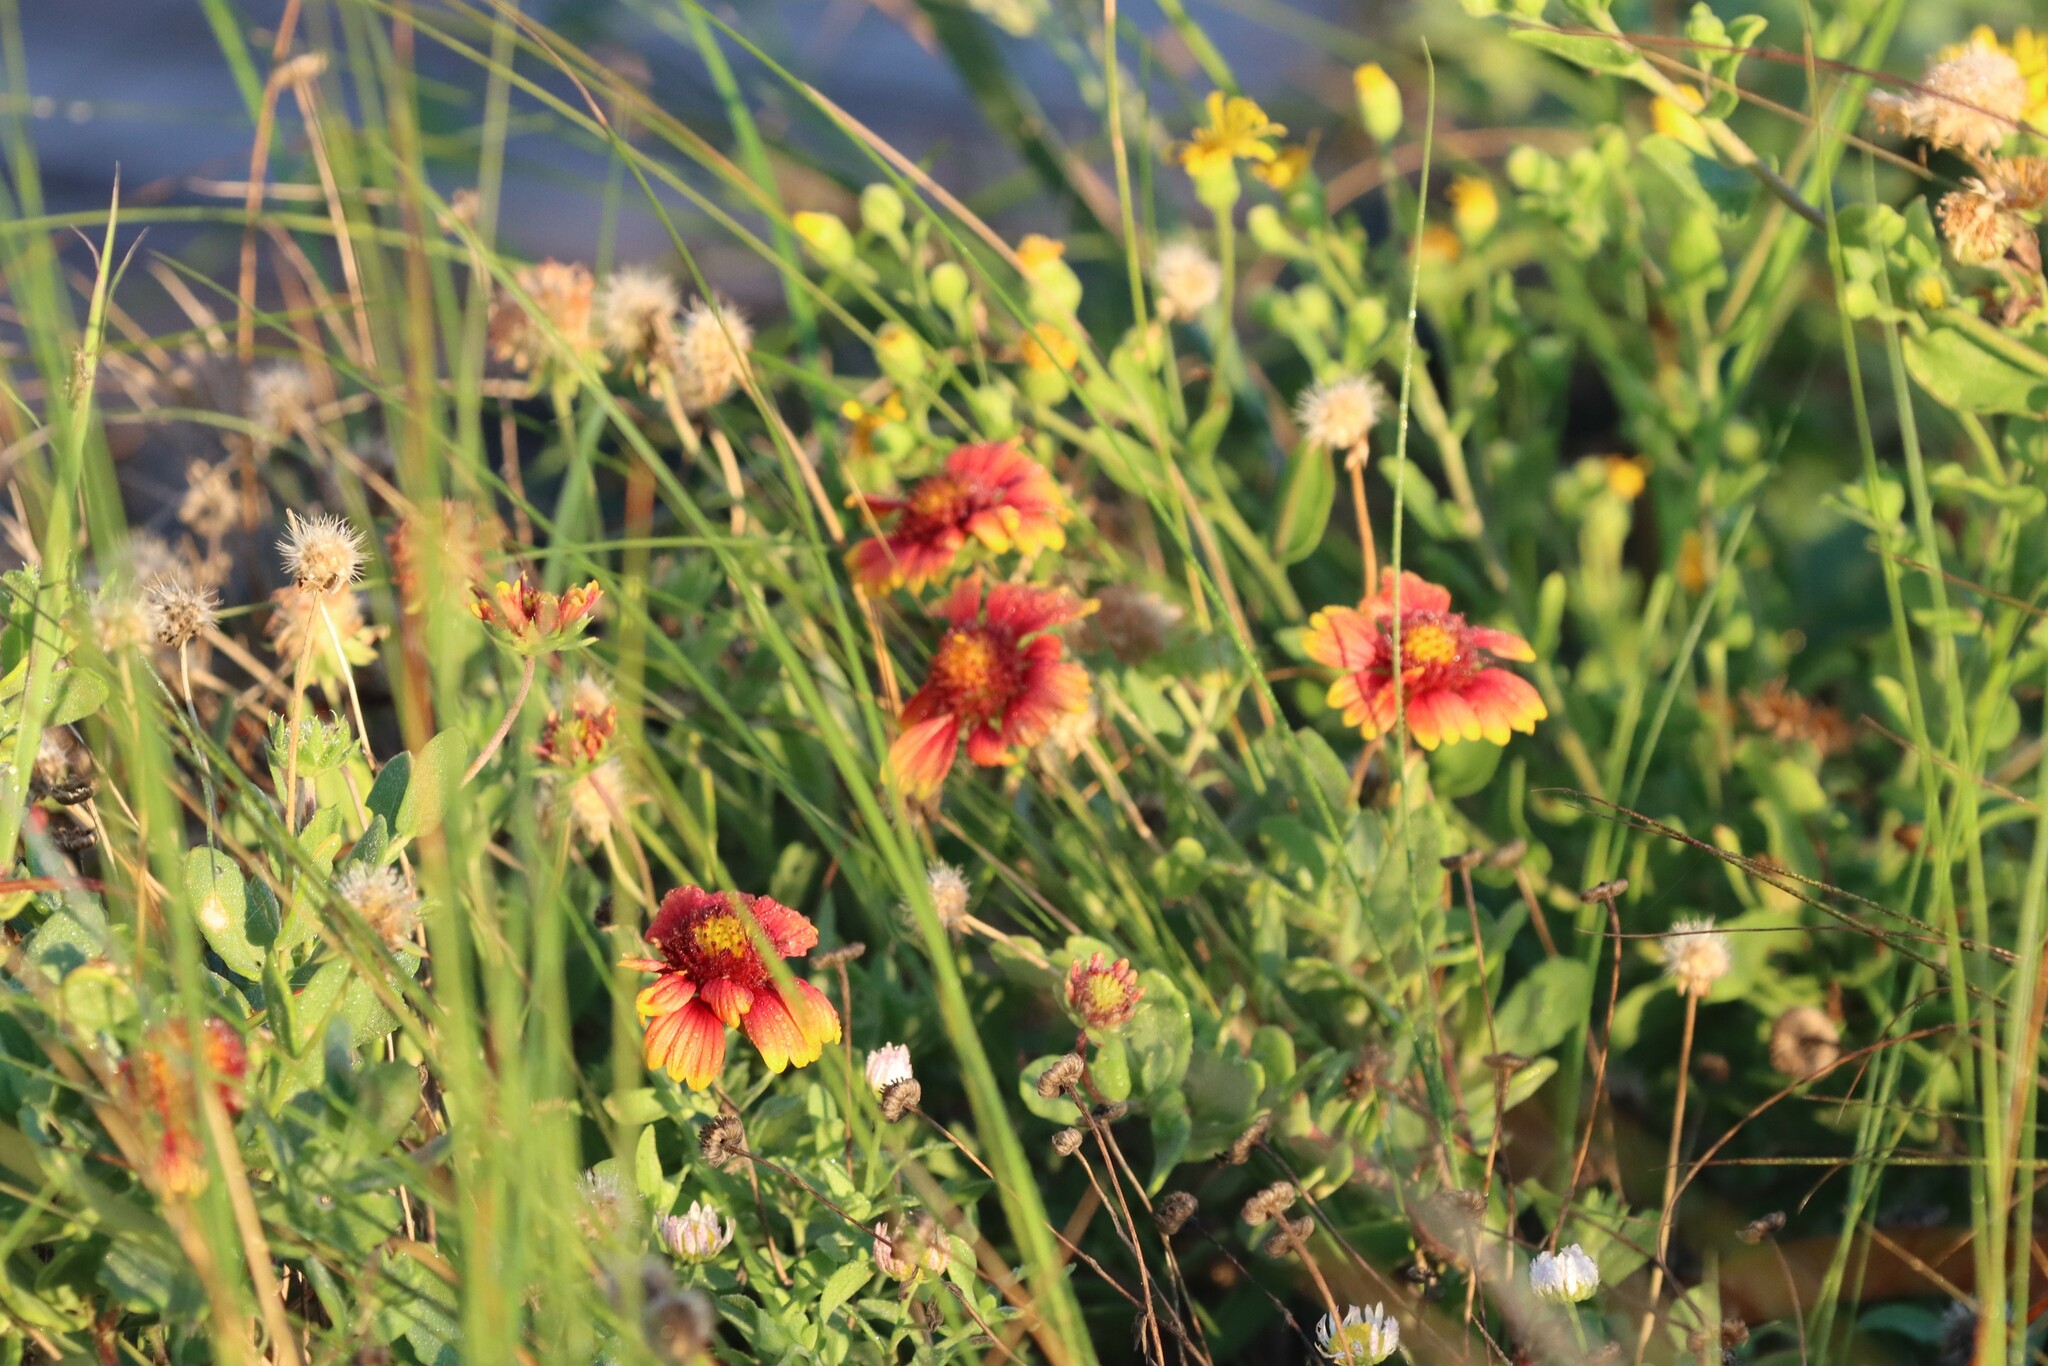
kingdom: Plantae
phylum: Tracheophyta
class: Magnoliopsida
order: Asterales
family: Asteraceae
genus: Gaillardia
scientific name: Gaillardia pulchella
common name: Firewheel
